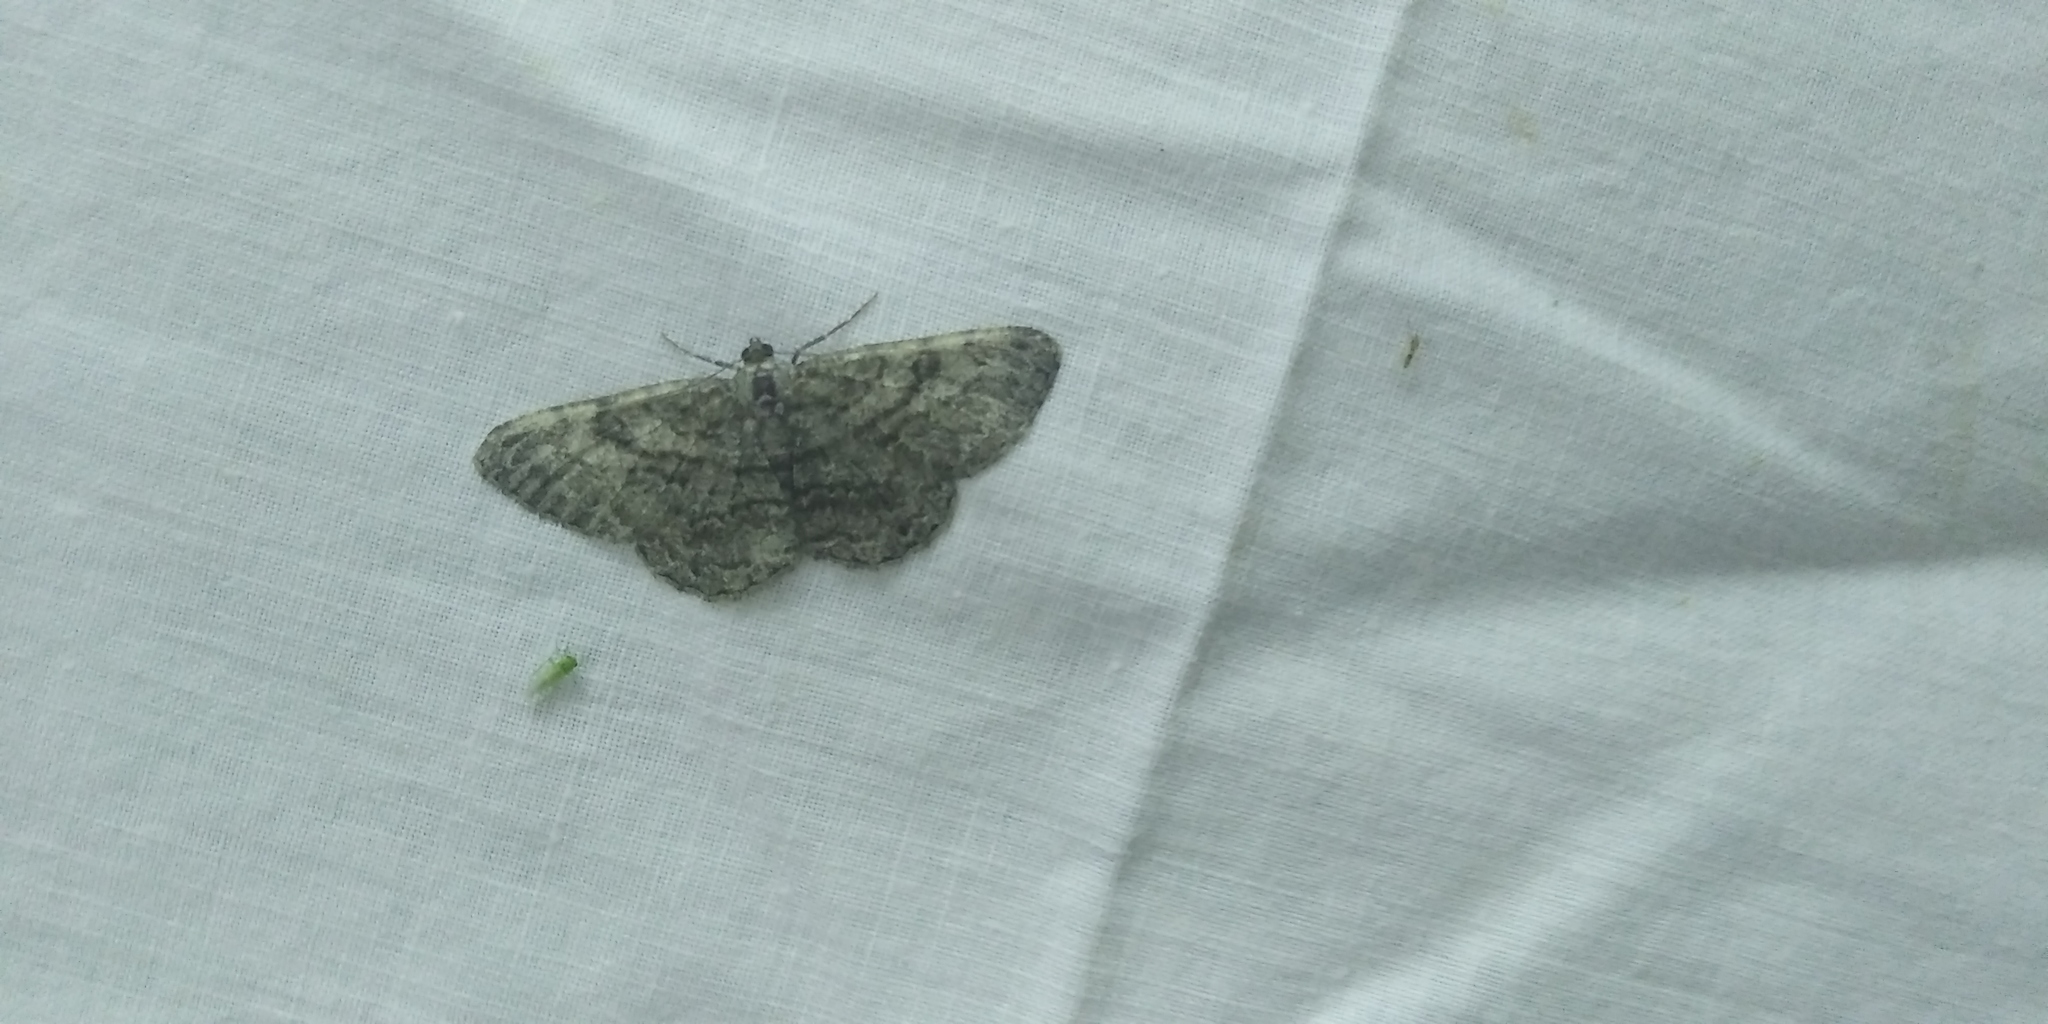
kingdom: Animalia
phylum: Arthropoda
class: Insecta
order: Lepidoptera
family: Geometridae
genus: Peribatodes
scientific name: Peribatodes rhomboidaria
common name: Willow beauty
